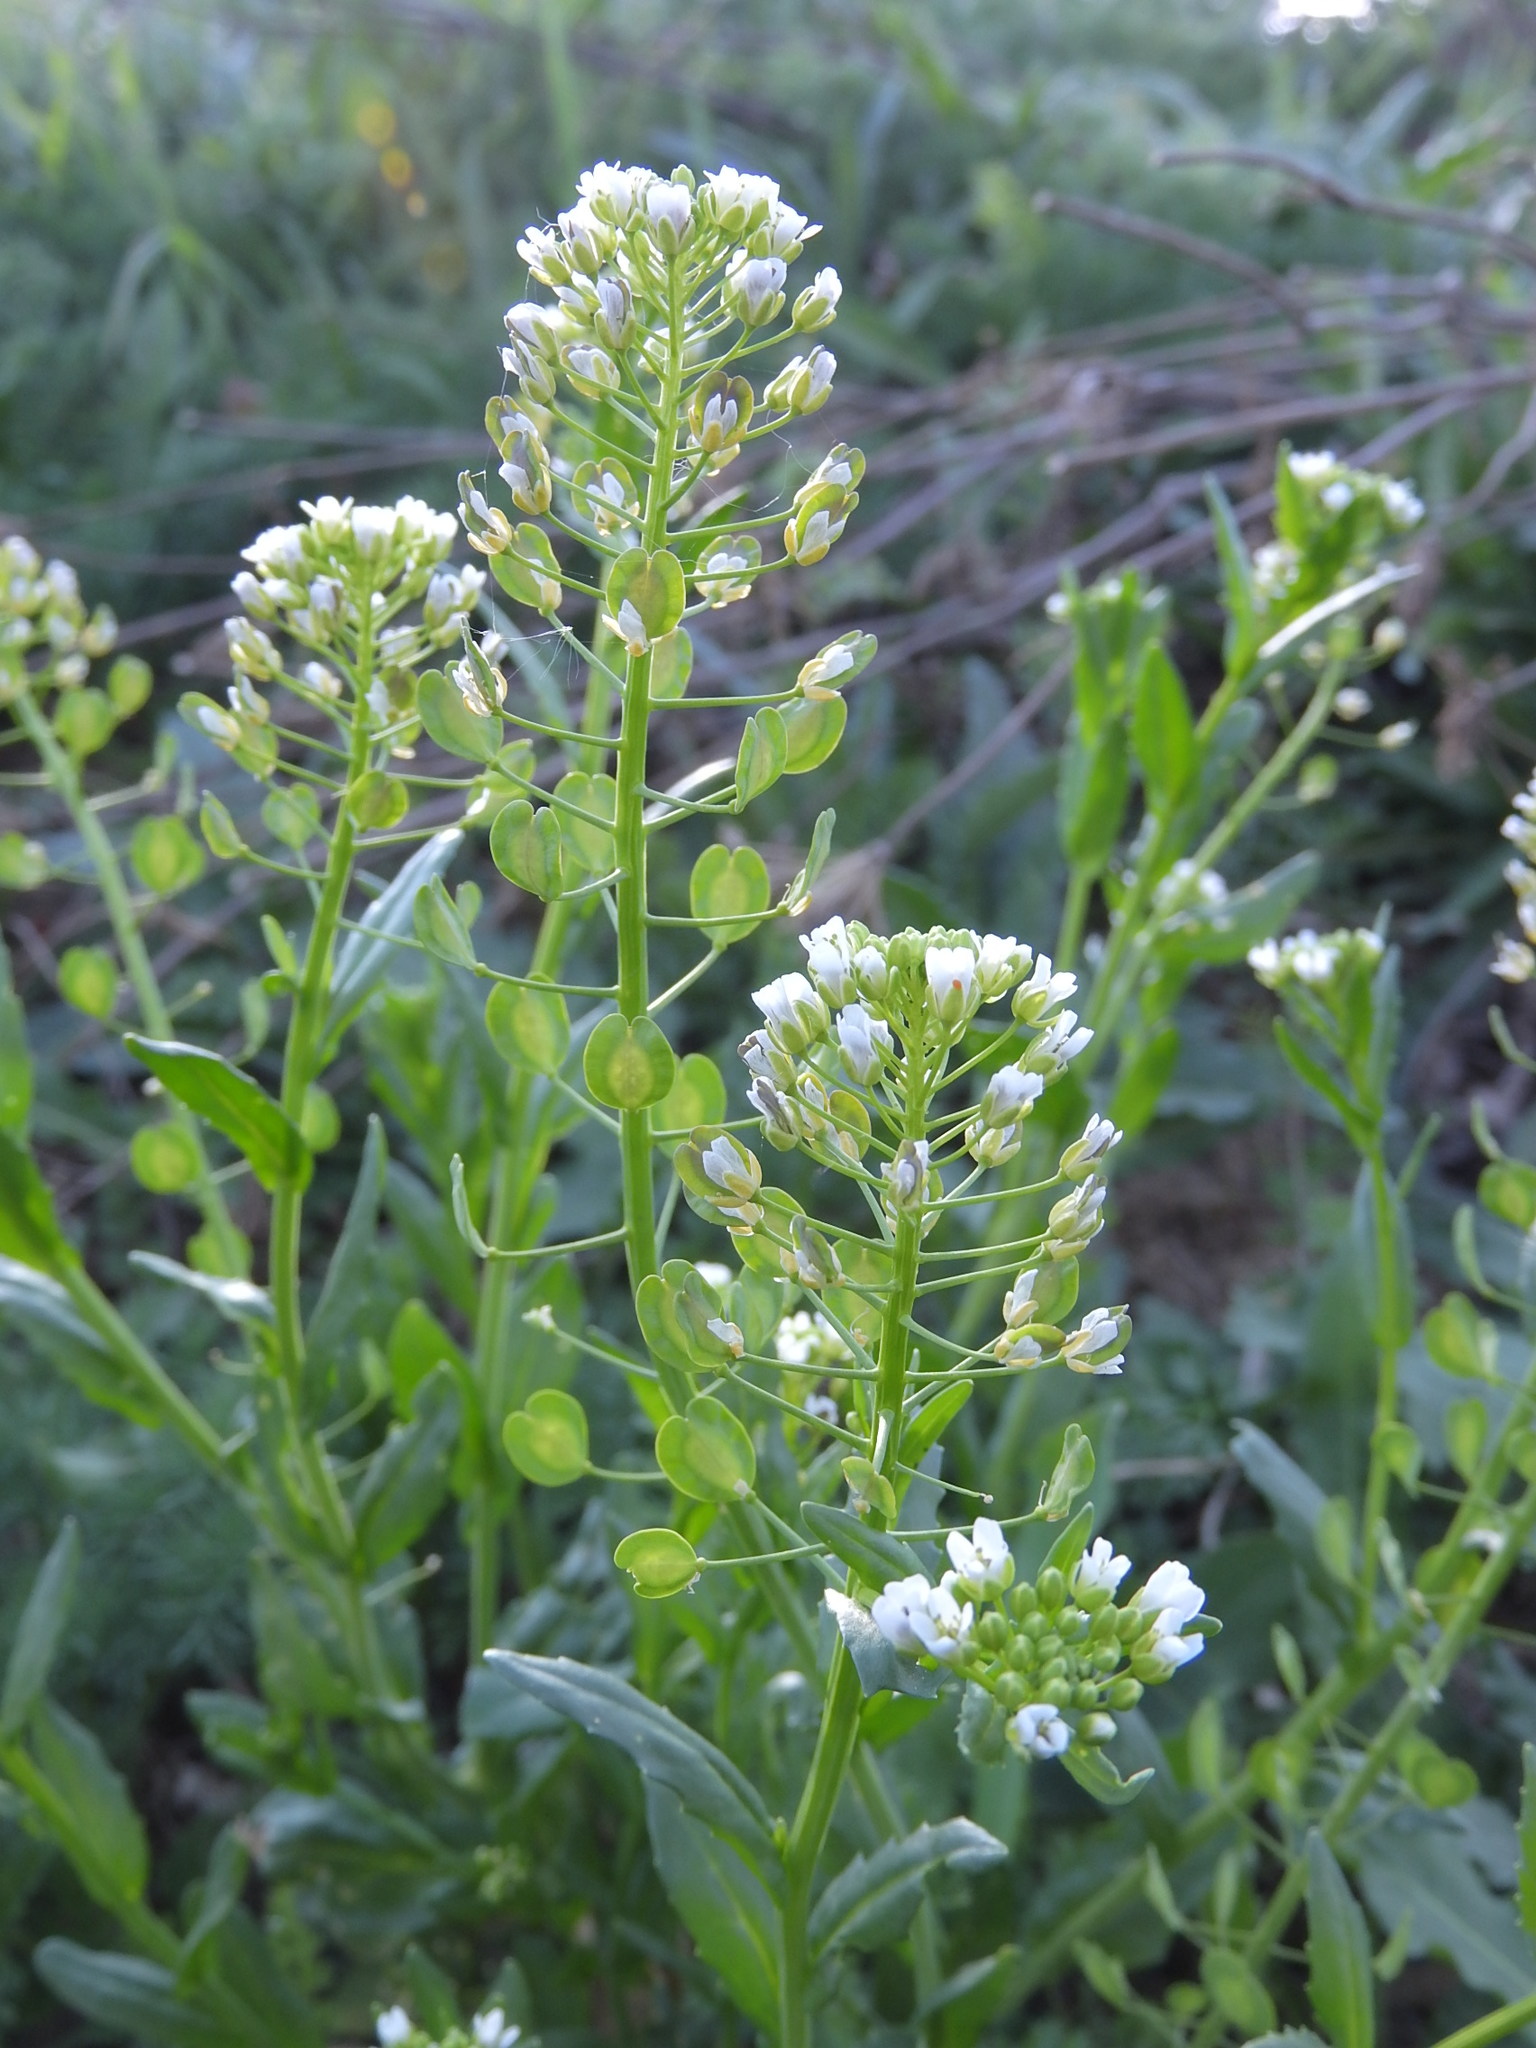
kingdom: Plantae
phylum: Tracheophyta
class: Magnoliopsida
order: Brassicales
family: Brassicaceae
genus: Thlaspi
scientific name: Thlaspi arvense
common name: Field pennycress
